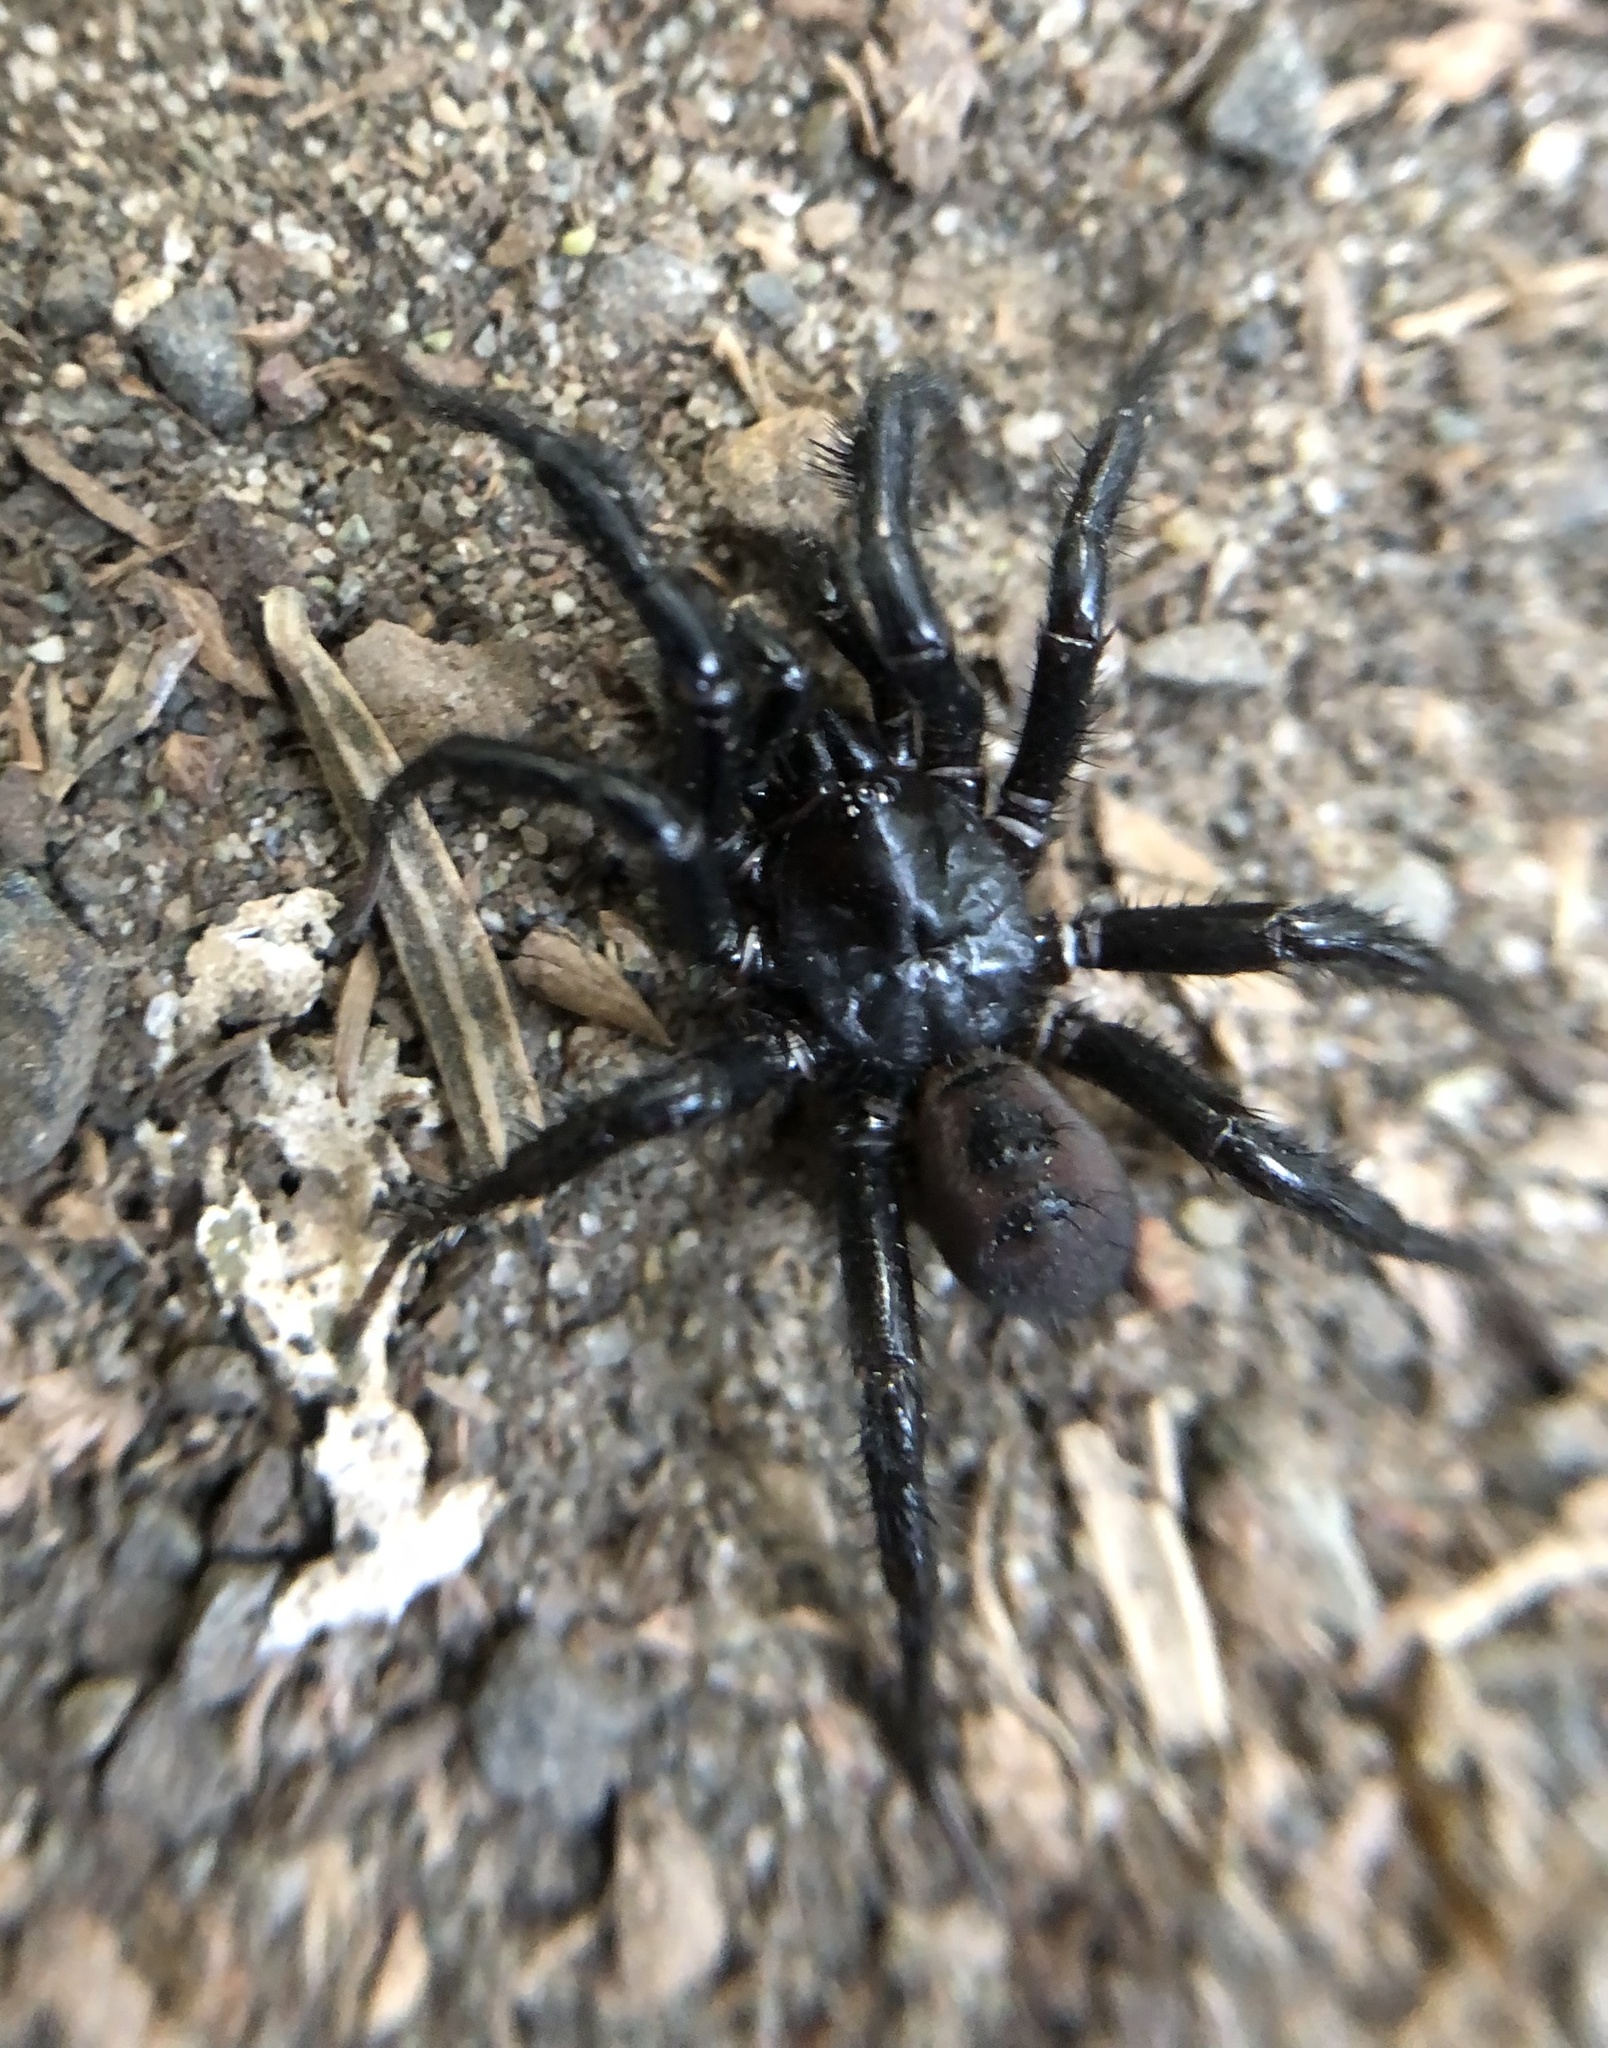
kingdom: Animalia
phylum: Arthropoda
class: Arachnida
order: Araneae
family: Antrodiaetidae
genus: Antrodiaetus
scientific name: Antrodiaetus pacificus
